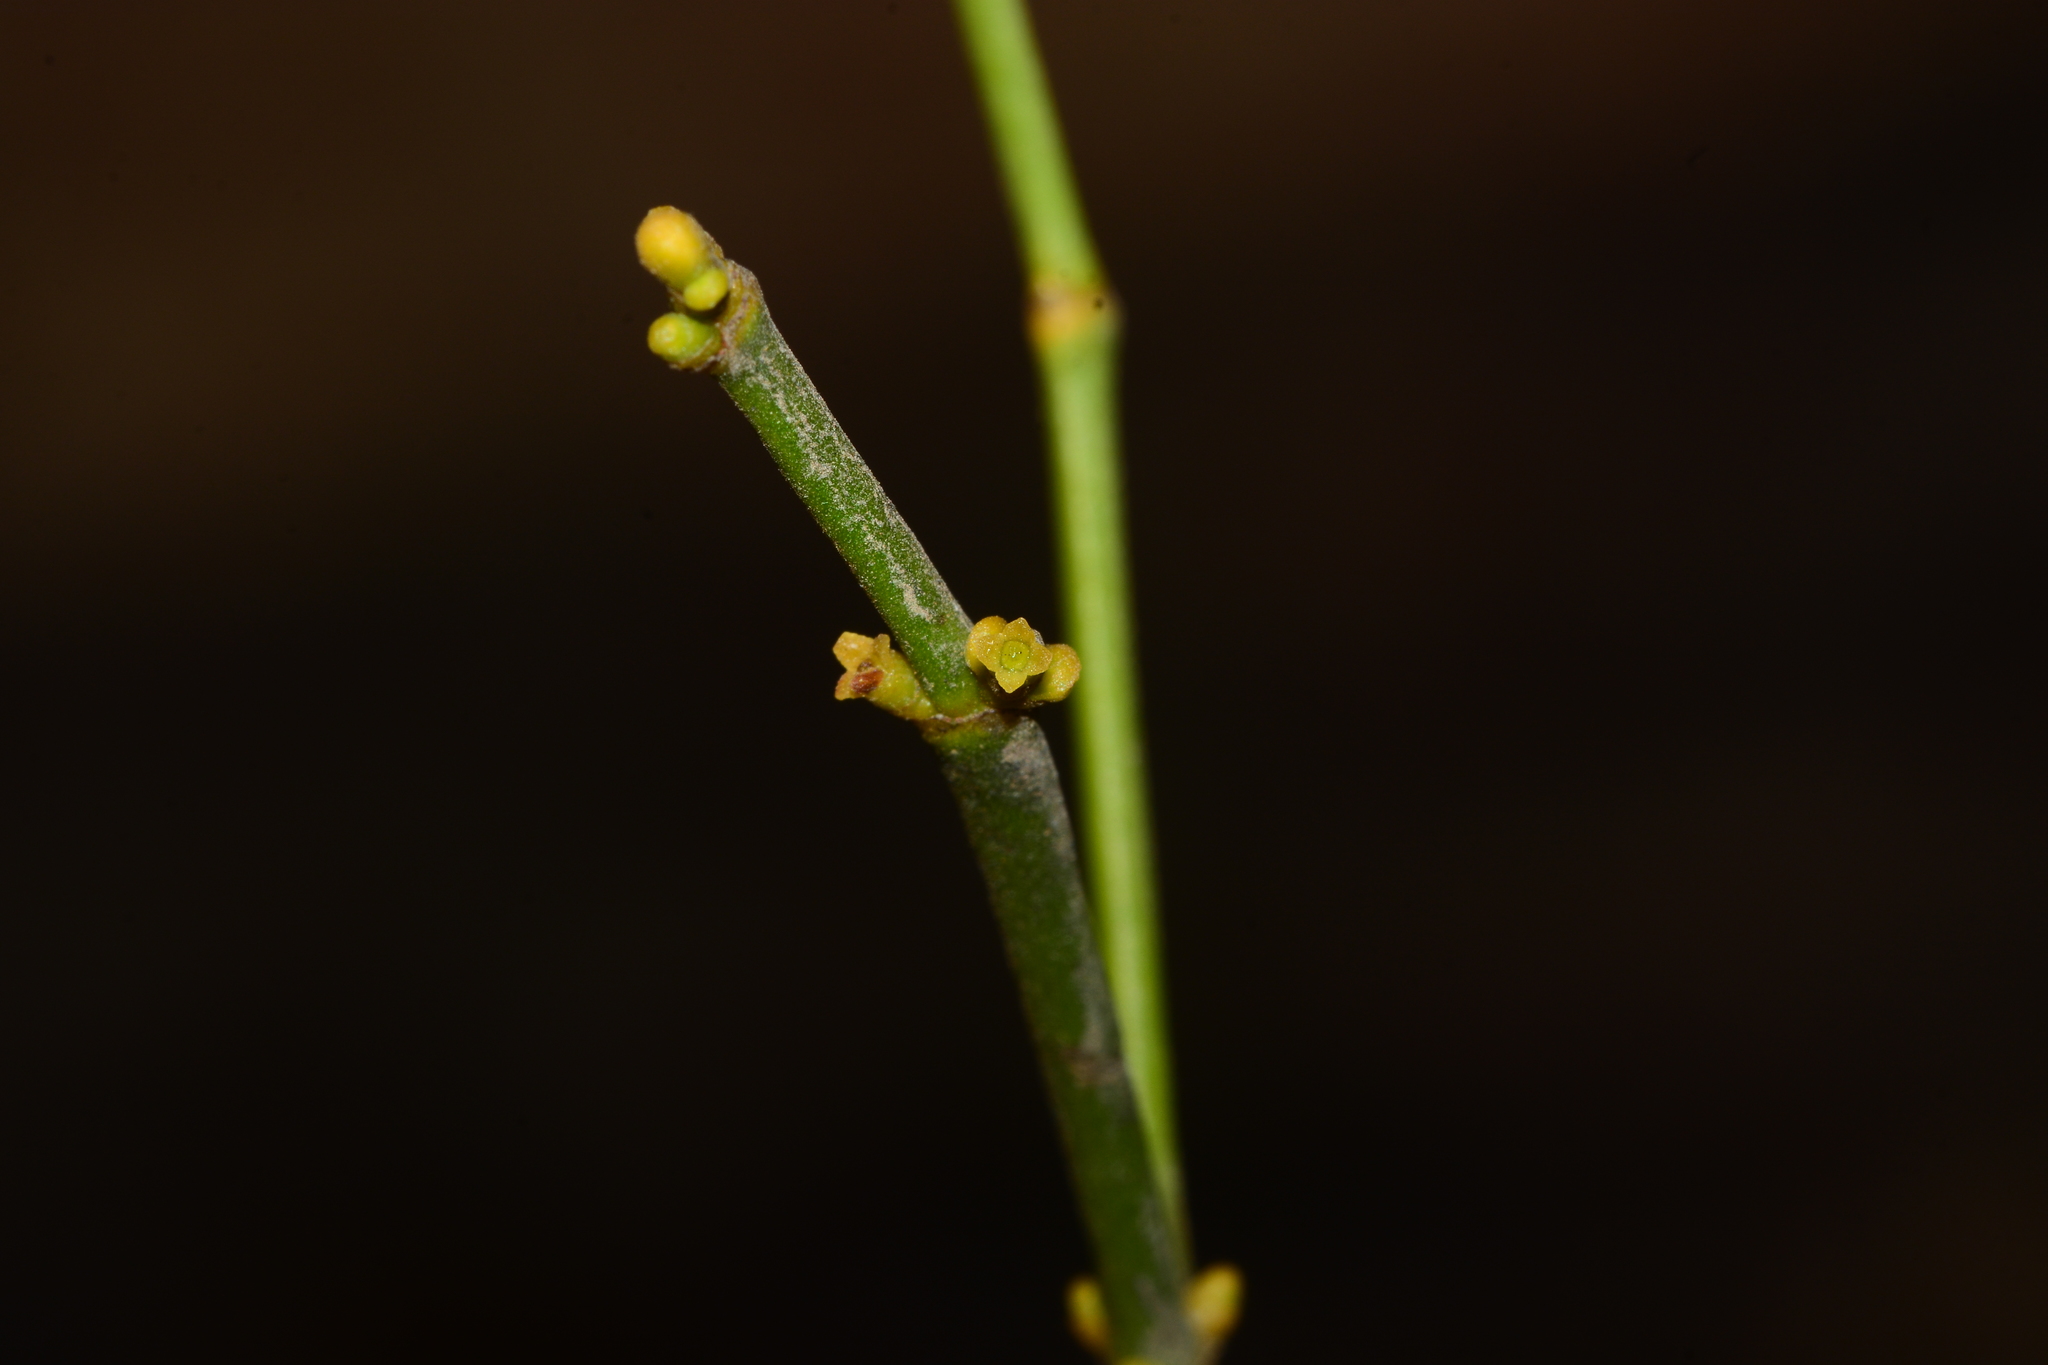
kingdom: Plantae
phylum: Tracheophyta
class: Magnoliopsida
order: Santalales
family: Viscaceae
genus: Viscum
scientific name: Viscum angulatum
